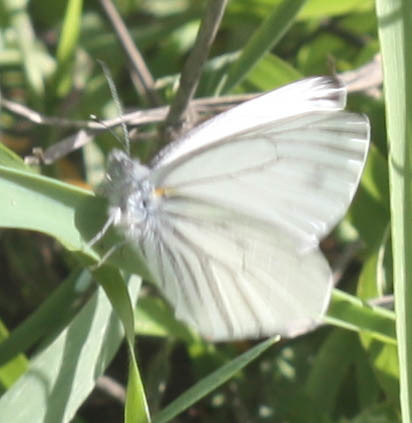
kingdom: Animalia
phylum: Arthropoda
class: Insecta
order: Lepidoptera
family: Pieridae
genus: Pieris
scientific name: Pieris marginalis
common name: Margined white
